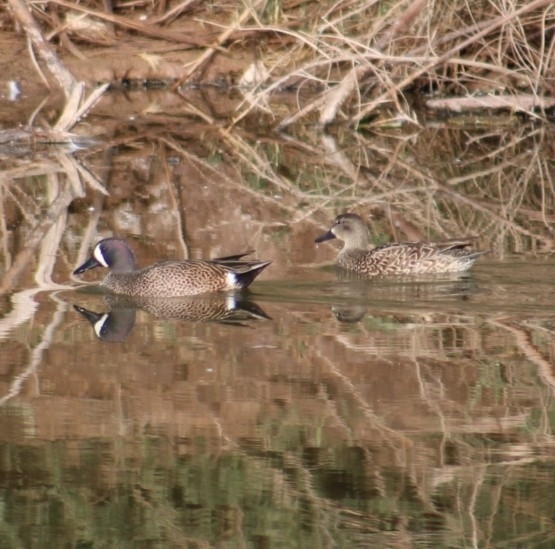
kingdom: Animalia
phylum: Chordata
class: Aves
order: Anseriformes
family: Anatidae
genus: Spatula
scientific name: Spatula discors
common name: Blue-winged teal
